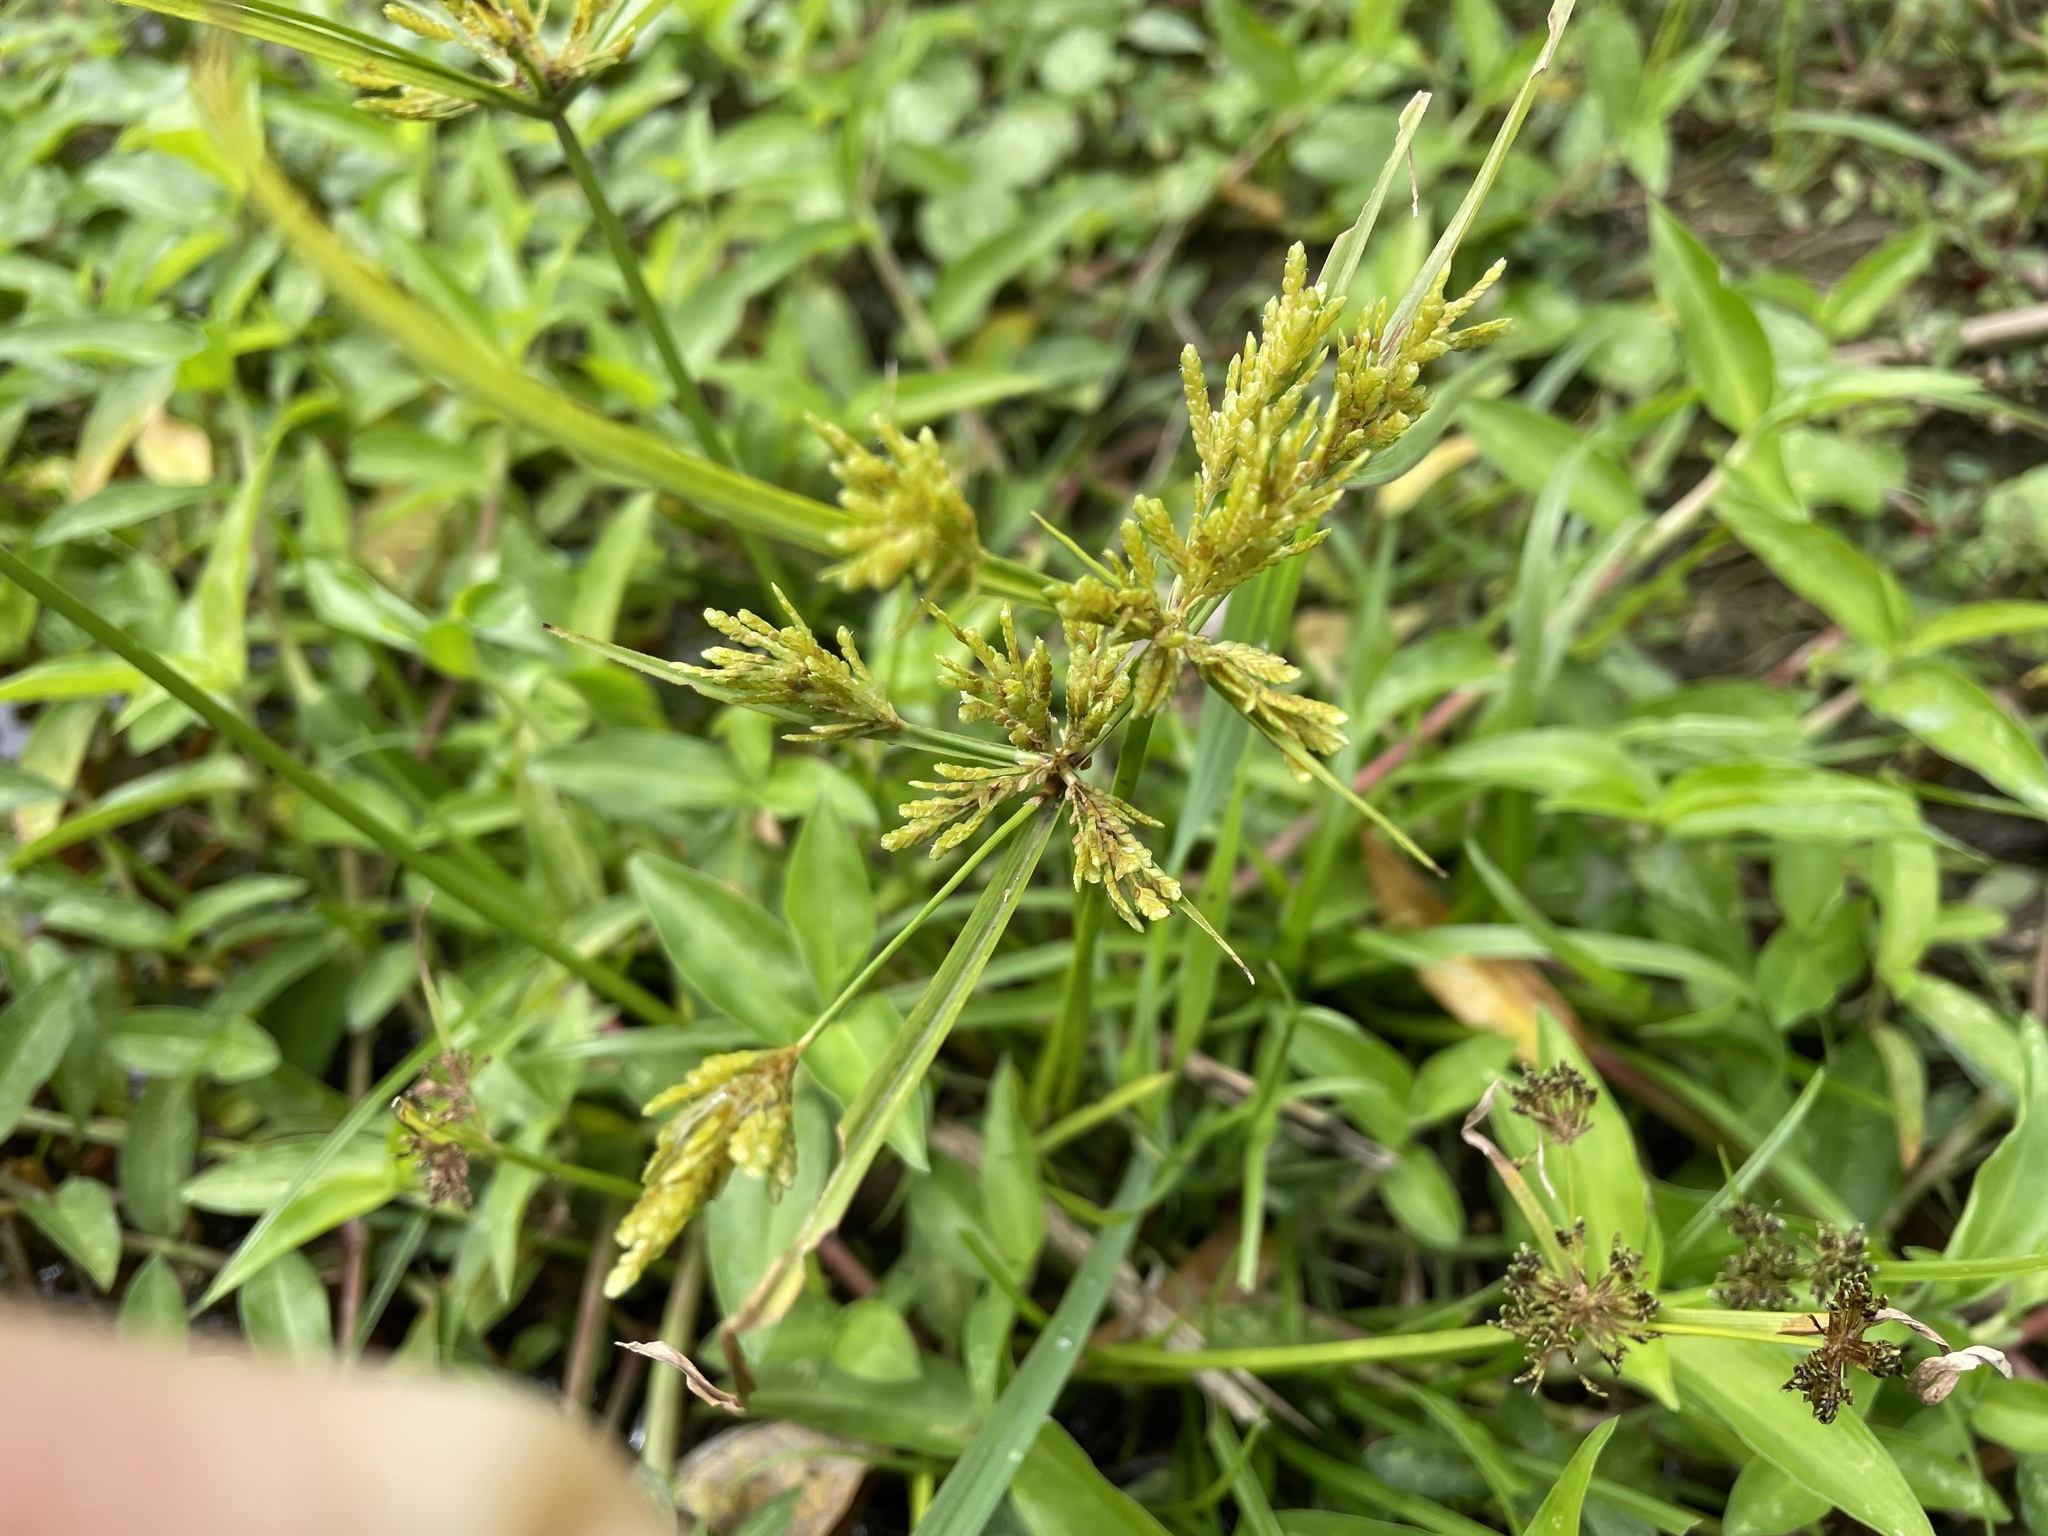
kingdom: Plantae
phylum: Tracheophyta
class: Liliopsida
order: Poales
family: Cyperaceae
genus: Cyperus
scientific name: Cyperus iria
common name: Ricefield flatsedge
